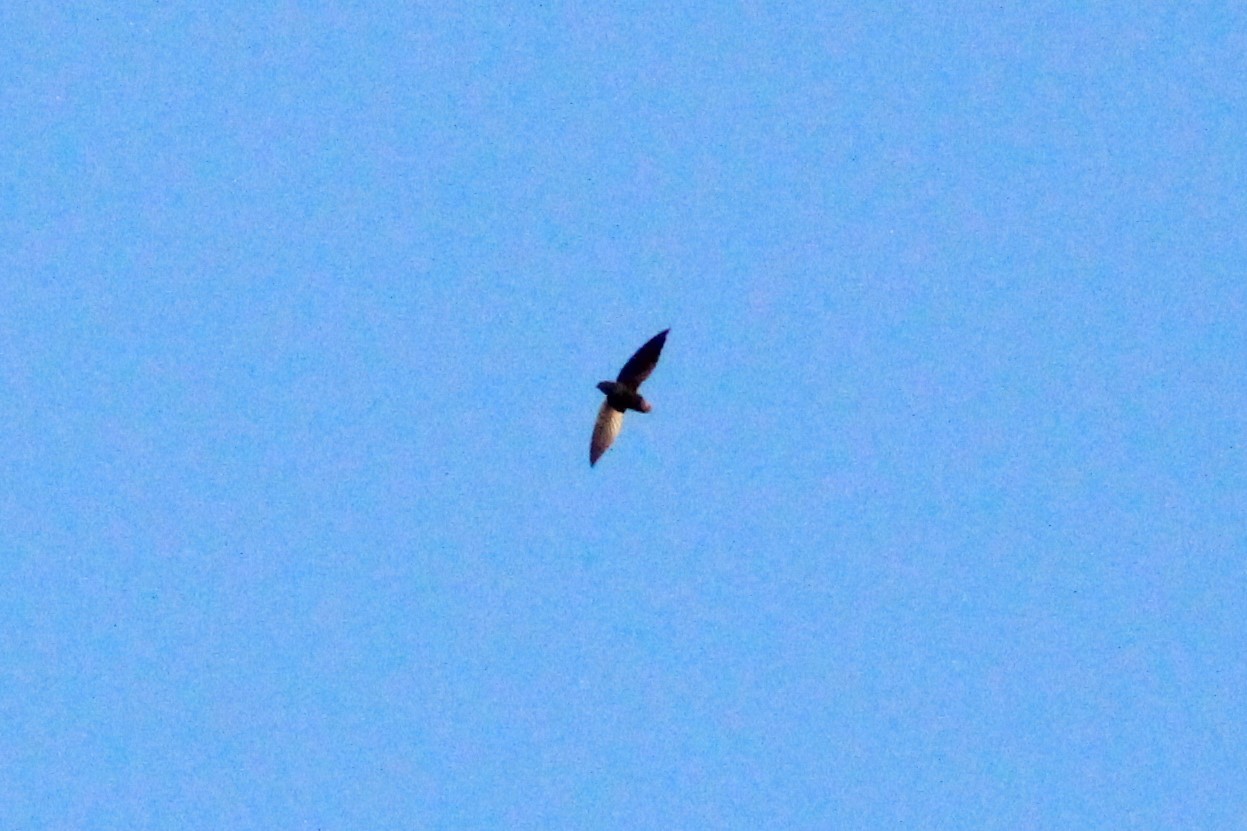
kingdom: Animalia
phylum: Chordata
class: Aves
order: Apodiformes
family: Apodidae
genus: Chaetura
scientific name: Chaetura brachyura
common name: Short-tailed swift
